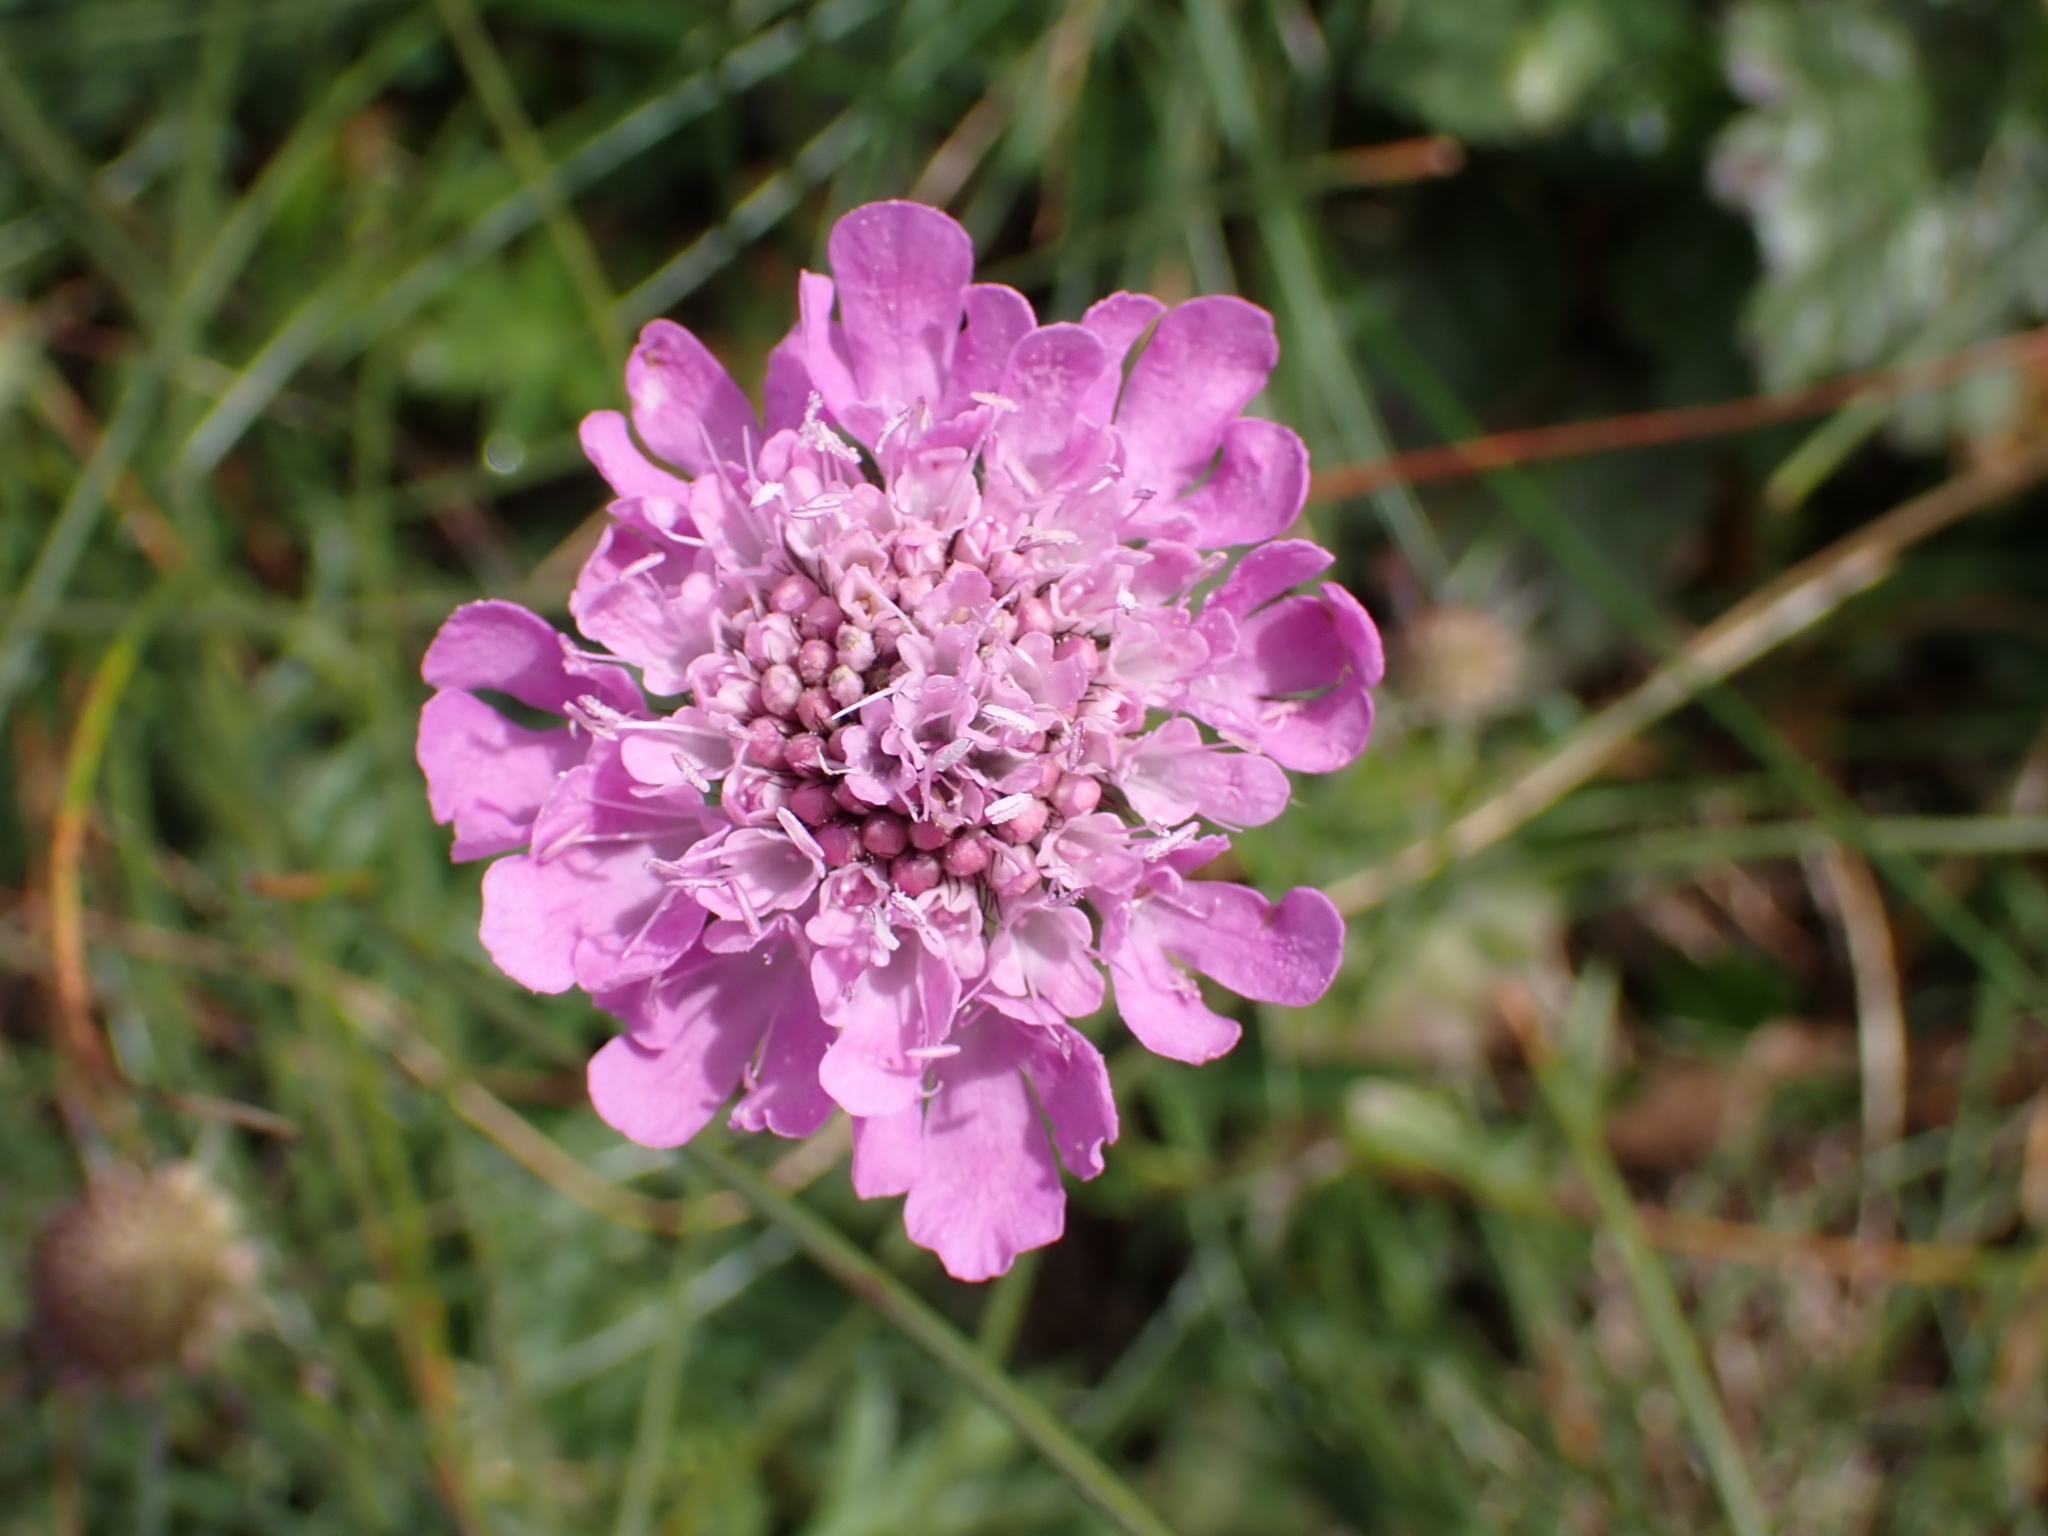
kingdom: Plantae
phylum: Tracheophyta
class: Magnoliopsida
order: Dipsacales
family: Caprifoliaceae
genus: Scabiosa
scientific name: Scabiosa lucida
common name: Shining scabious
